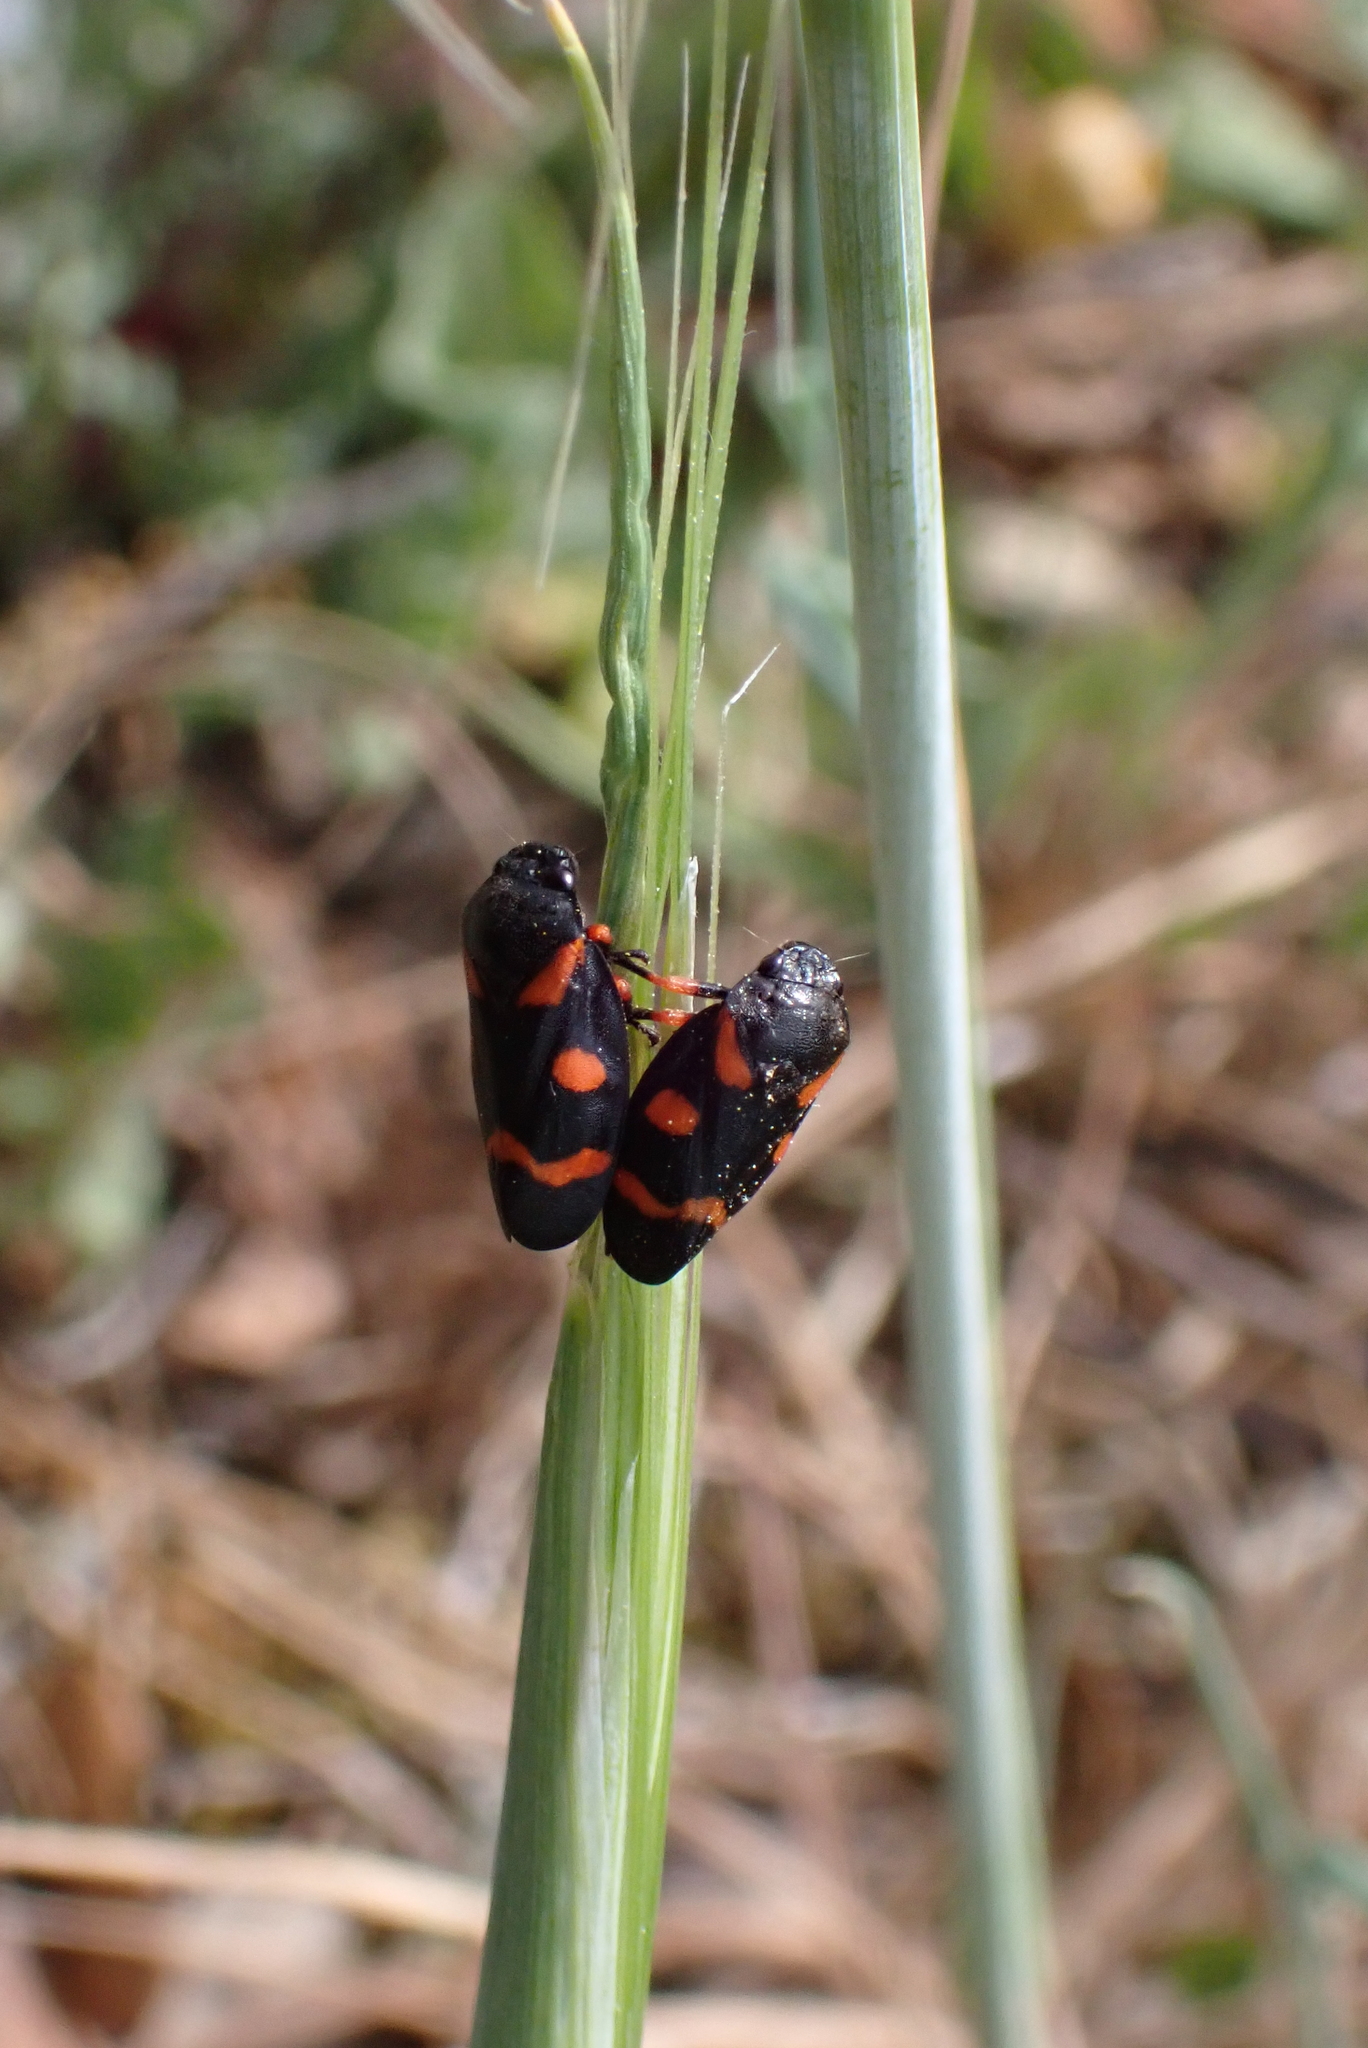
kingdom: Animalia
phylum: Arthropoda
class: Insecta
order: Hemiptera
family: Cercopidae
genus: Cercopis
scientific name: Cercopis intermedia
